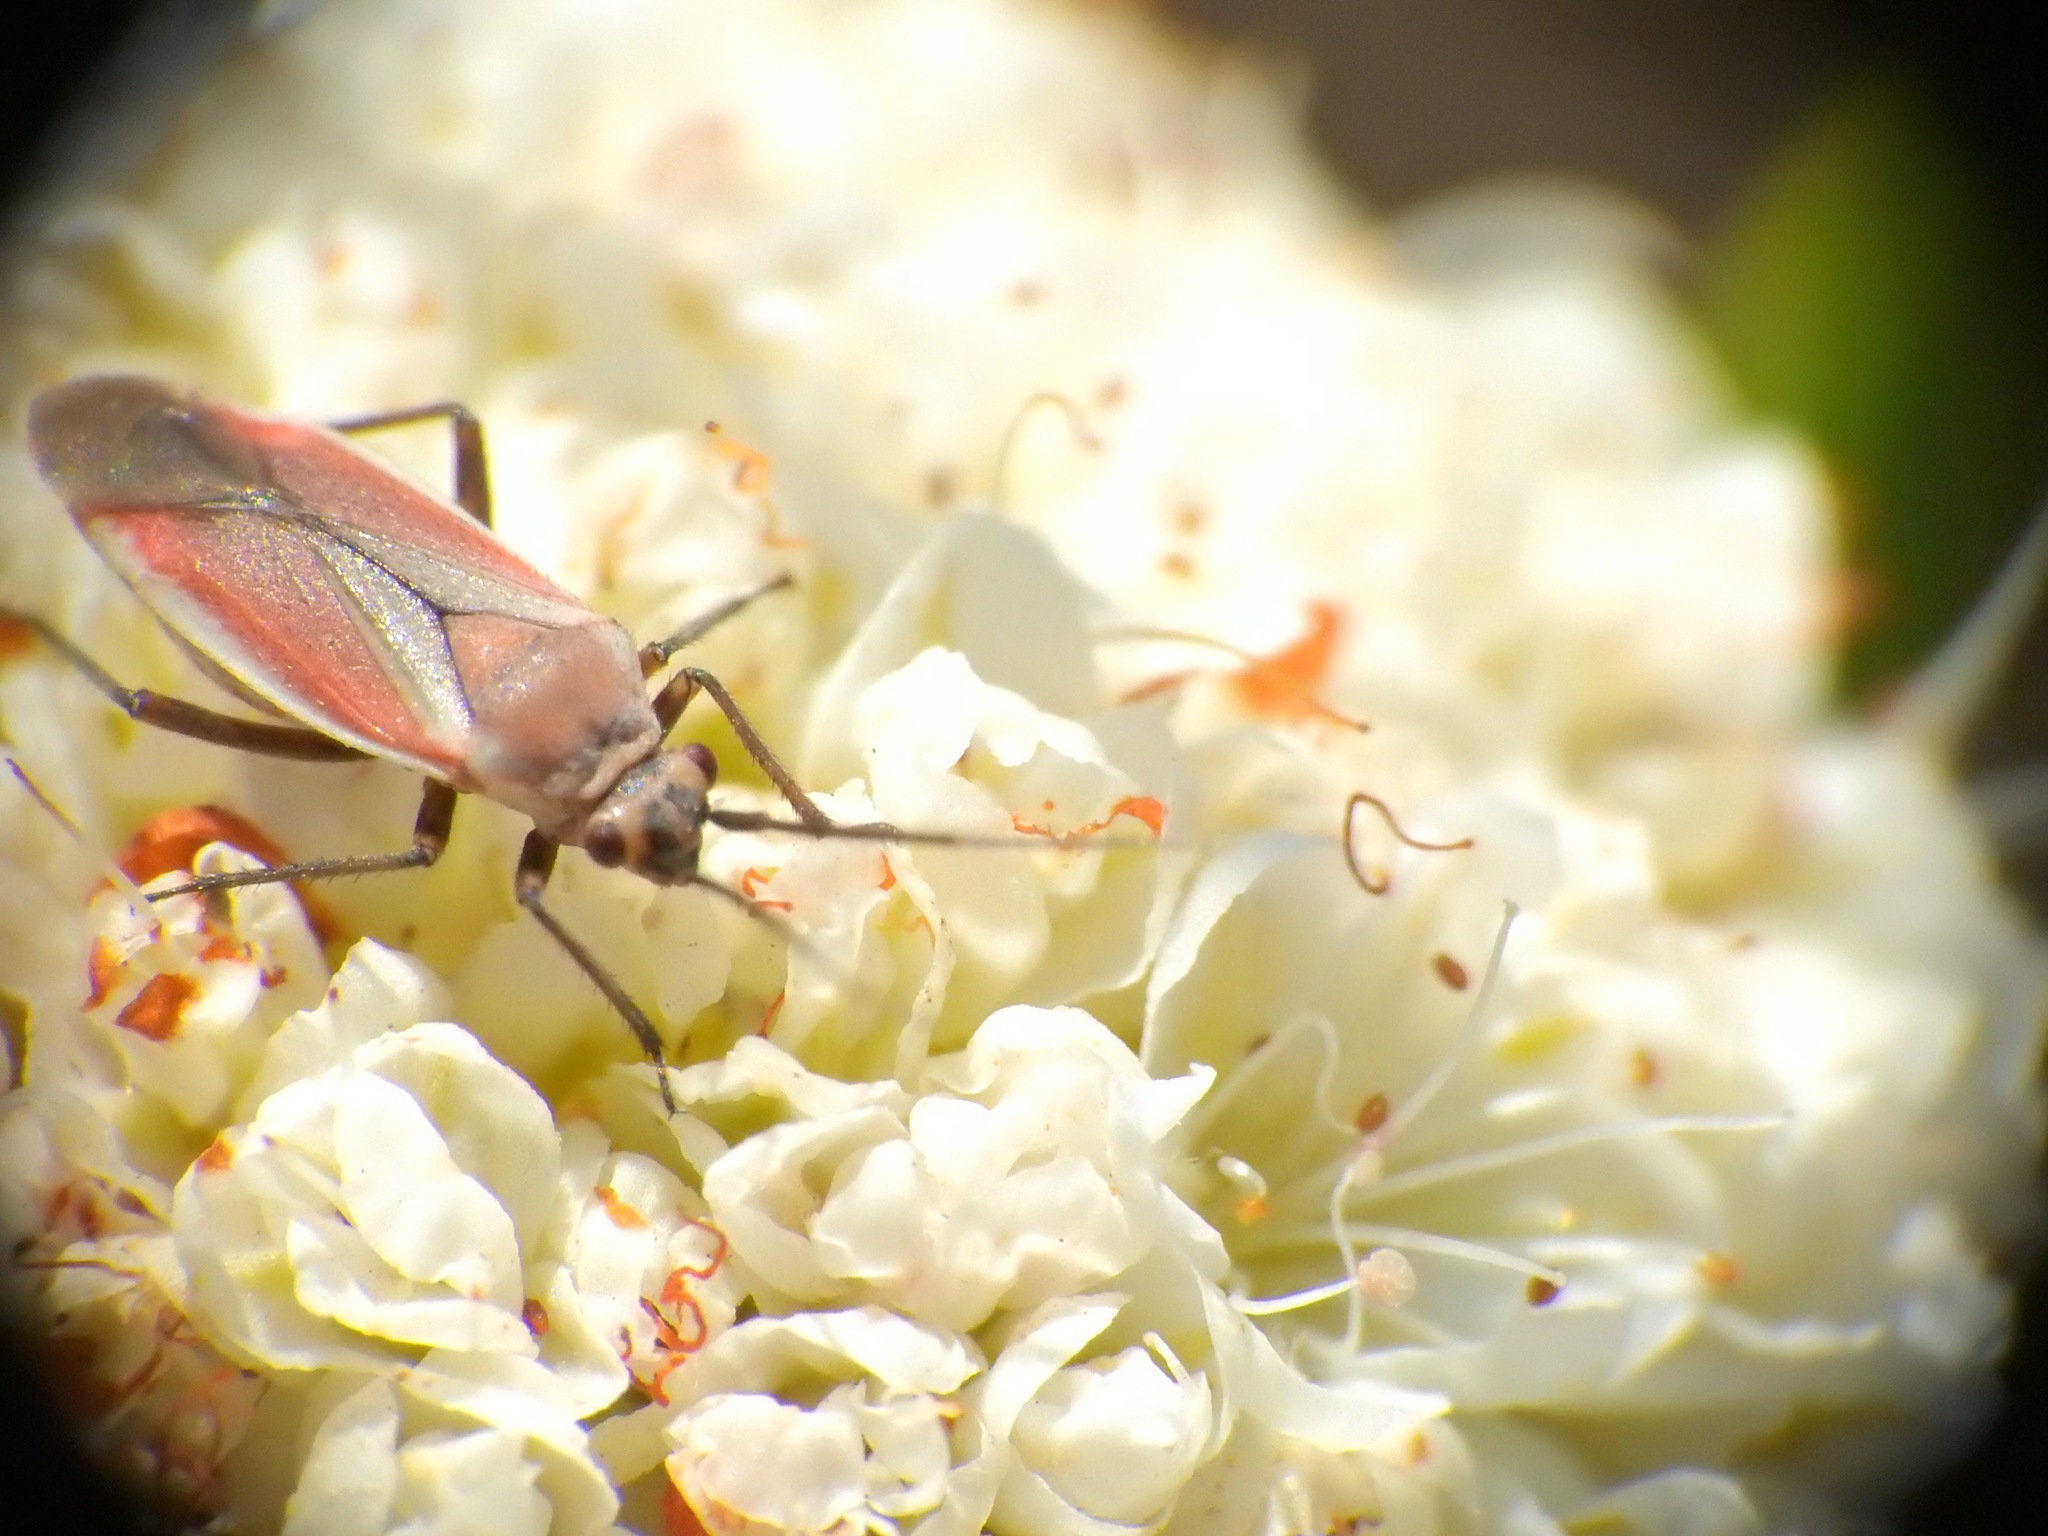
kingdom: Animalia
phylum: Arthropoda
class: Insecta
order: Hemiptera
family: Miridae
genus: Lopidea
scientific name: Lopidea marginata
